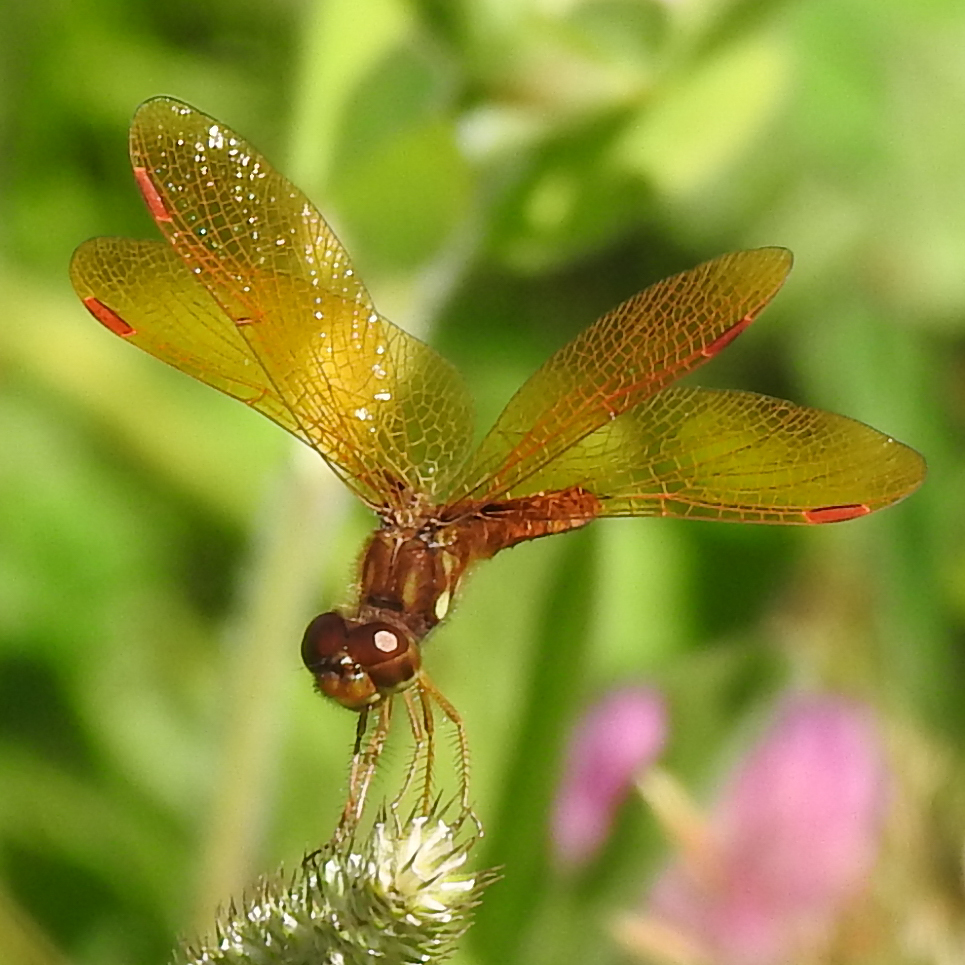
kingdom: Animalia
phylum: Arthropoda
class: Insecta
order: Odonata
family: Libellulidae
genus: Perithemis
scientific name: Perithemis tenera
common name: Eastern amberwing
